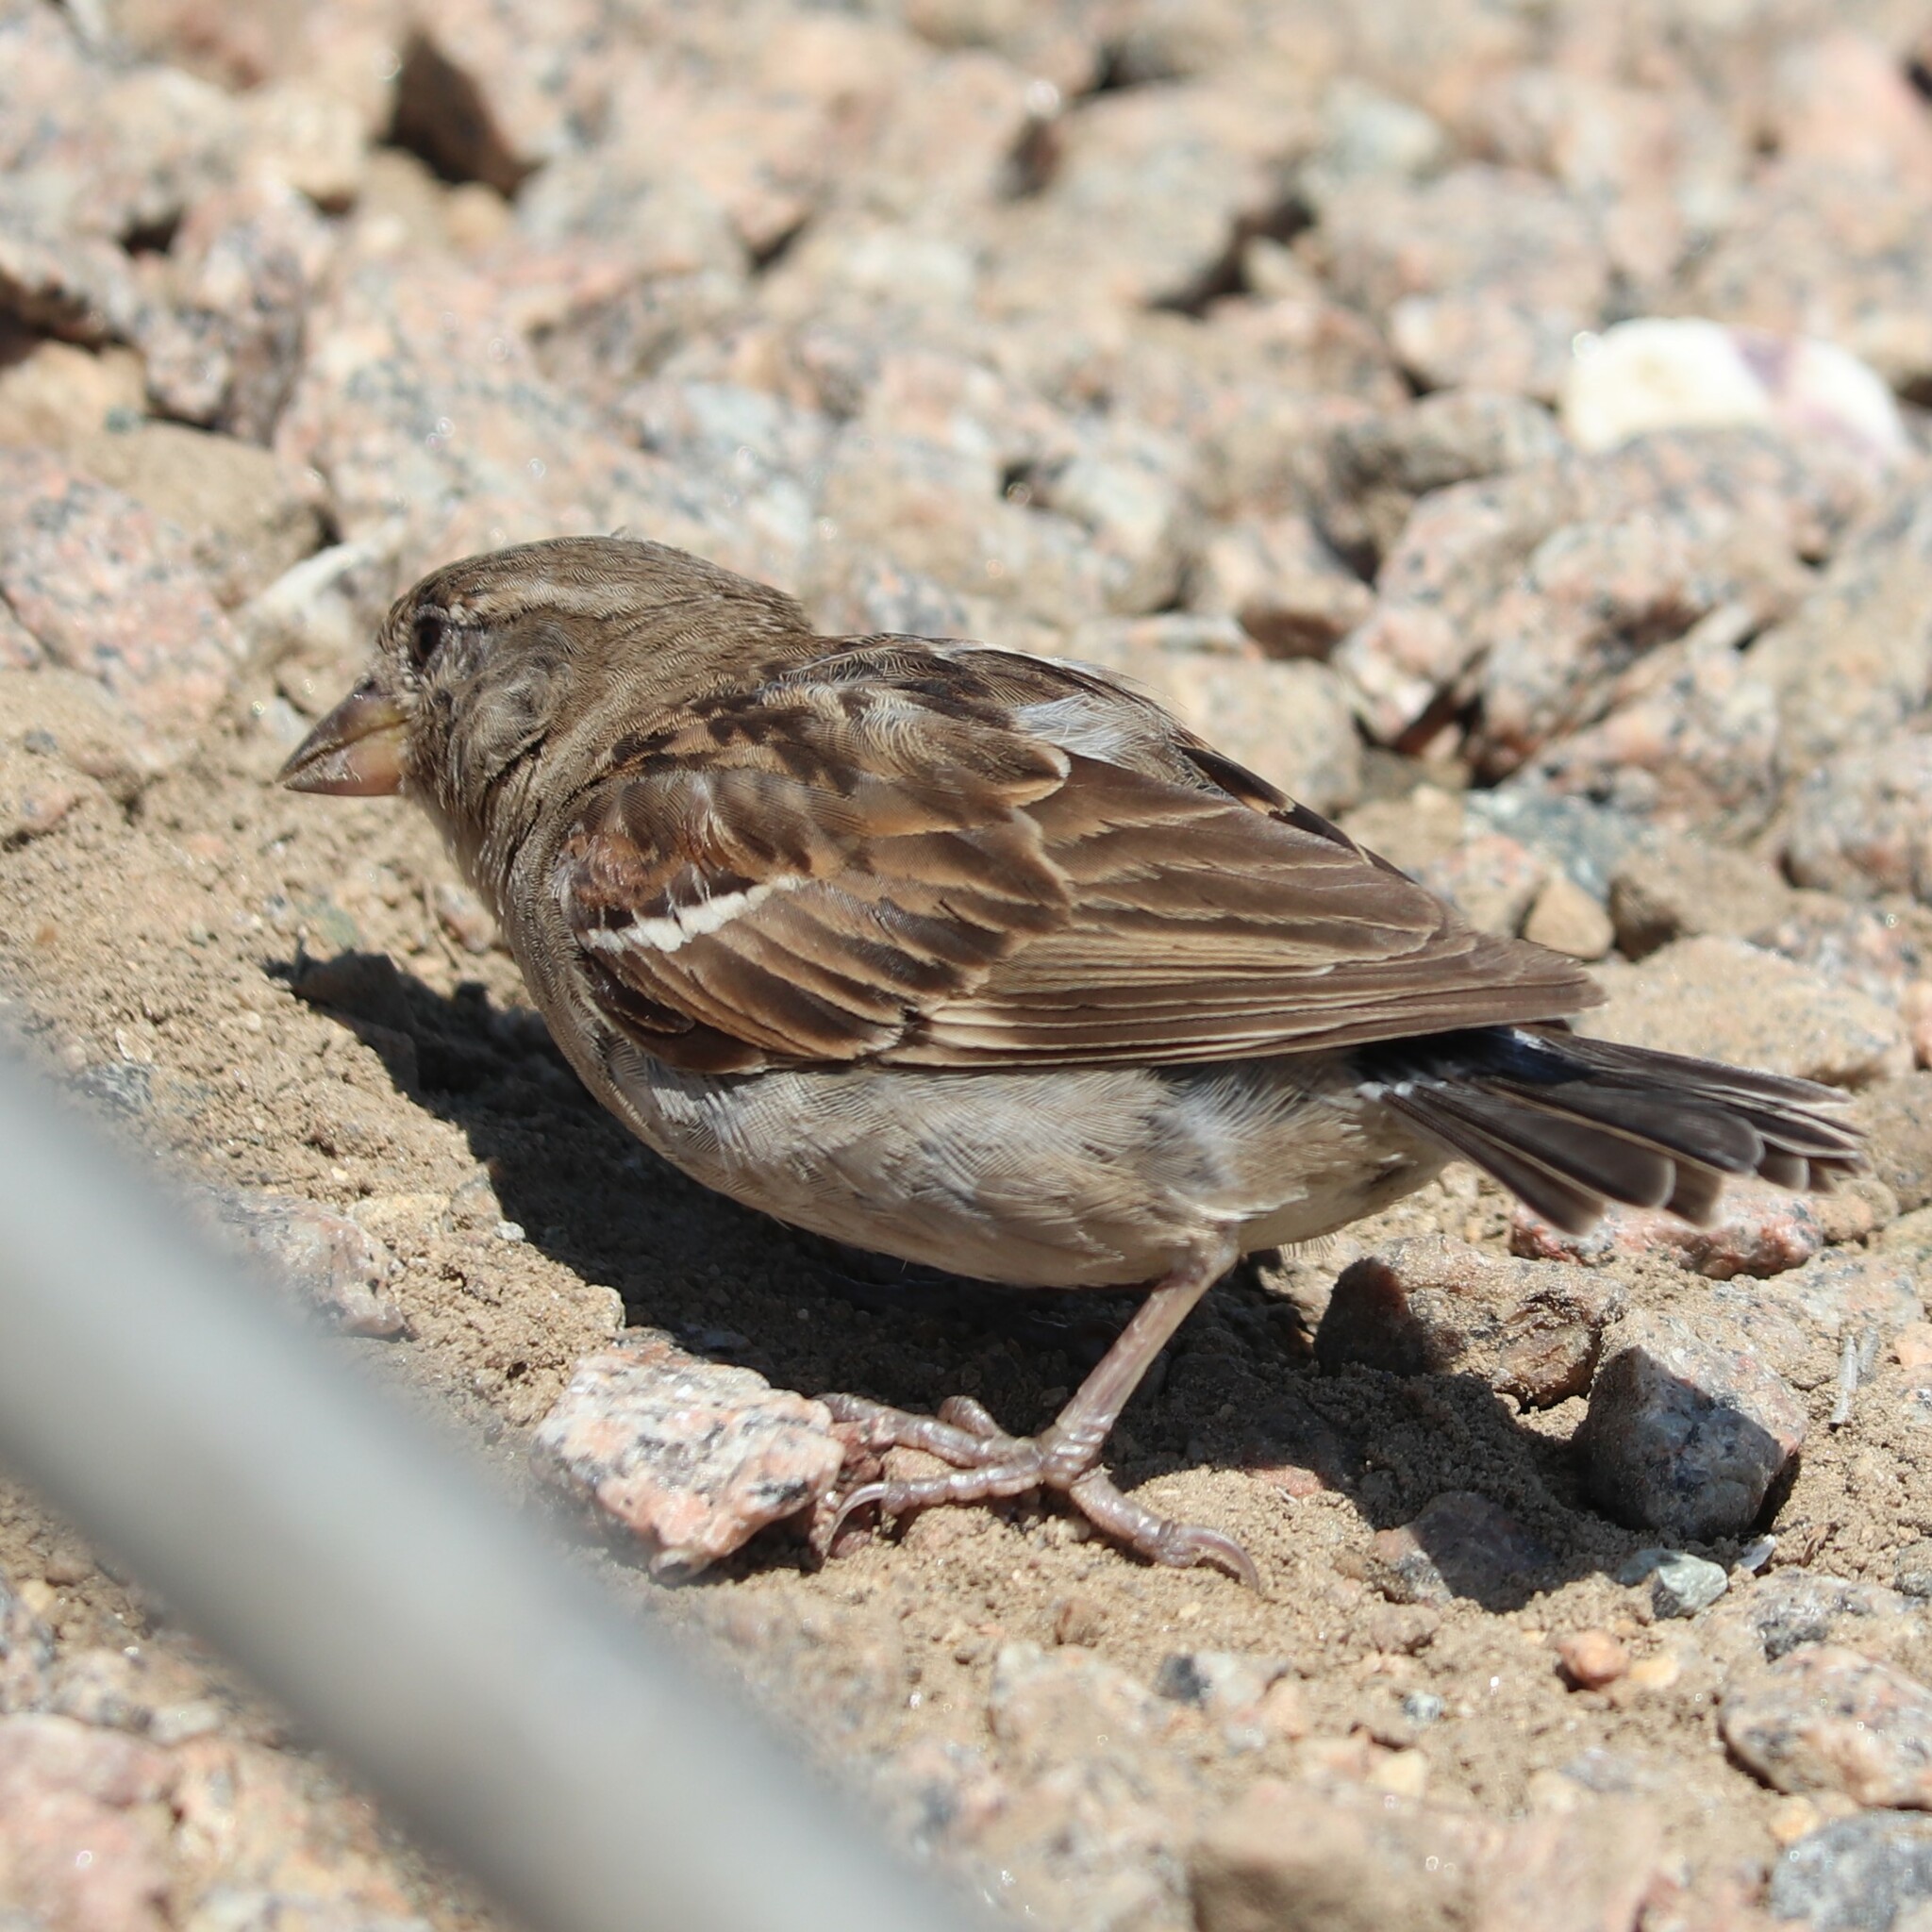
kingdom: Animalia
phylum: Chordata
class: Aves
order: Passeriformes
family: Passeridae
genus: Passer
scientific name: Passer domesticus
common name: House sparrow
